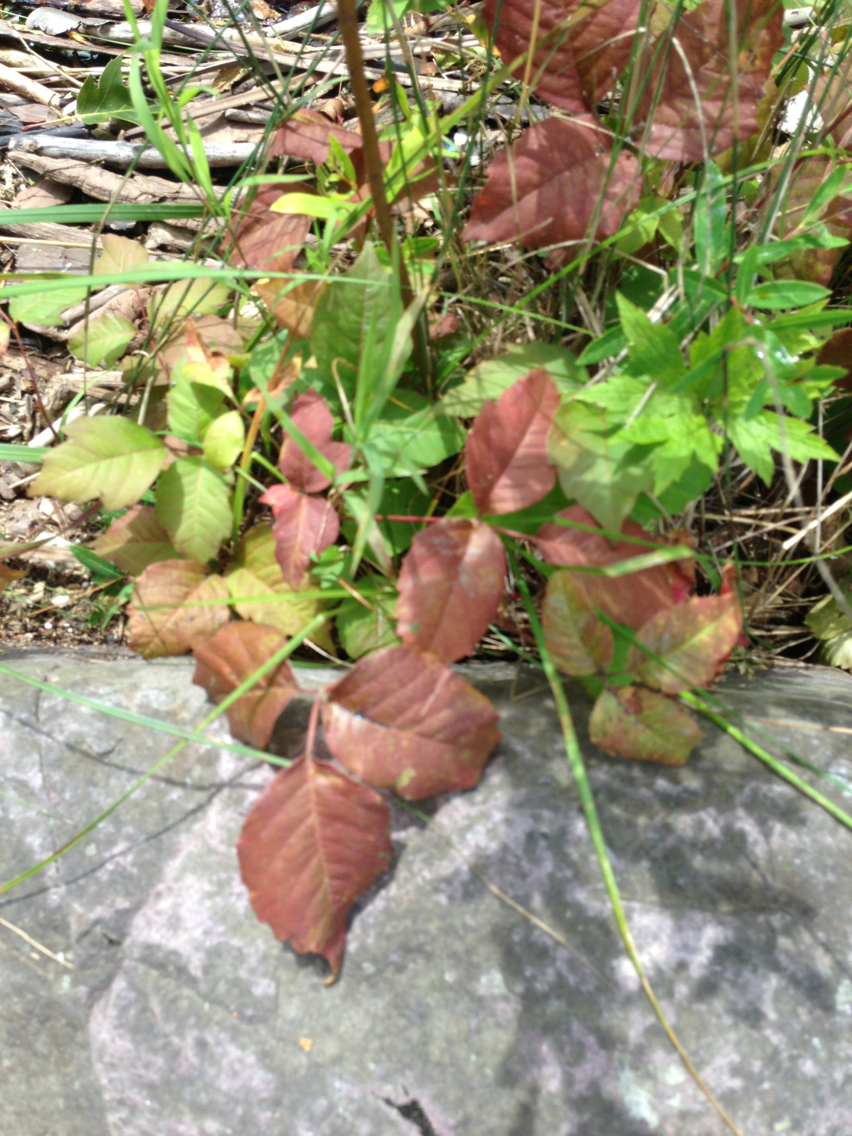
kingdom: Plantae
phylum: Tracheophyta
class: Magnoliopsida
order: Sapindales
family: Anacardiaceae
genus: Toxicodendron
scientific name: Toxicodendron radicans
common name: Poison ivy
